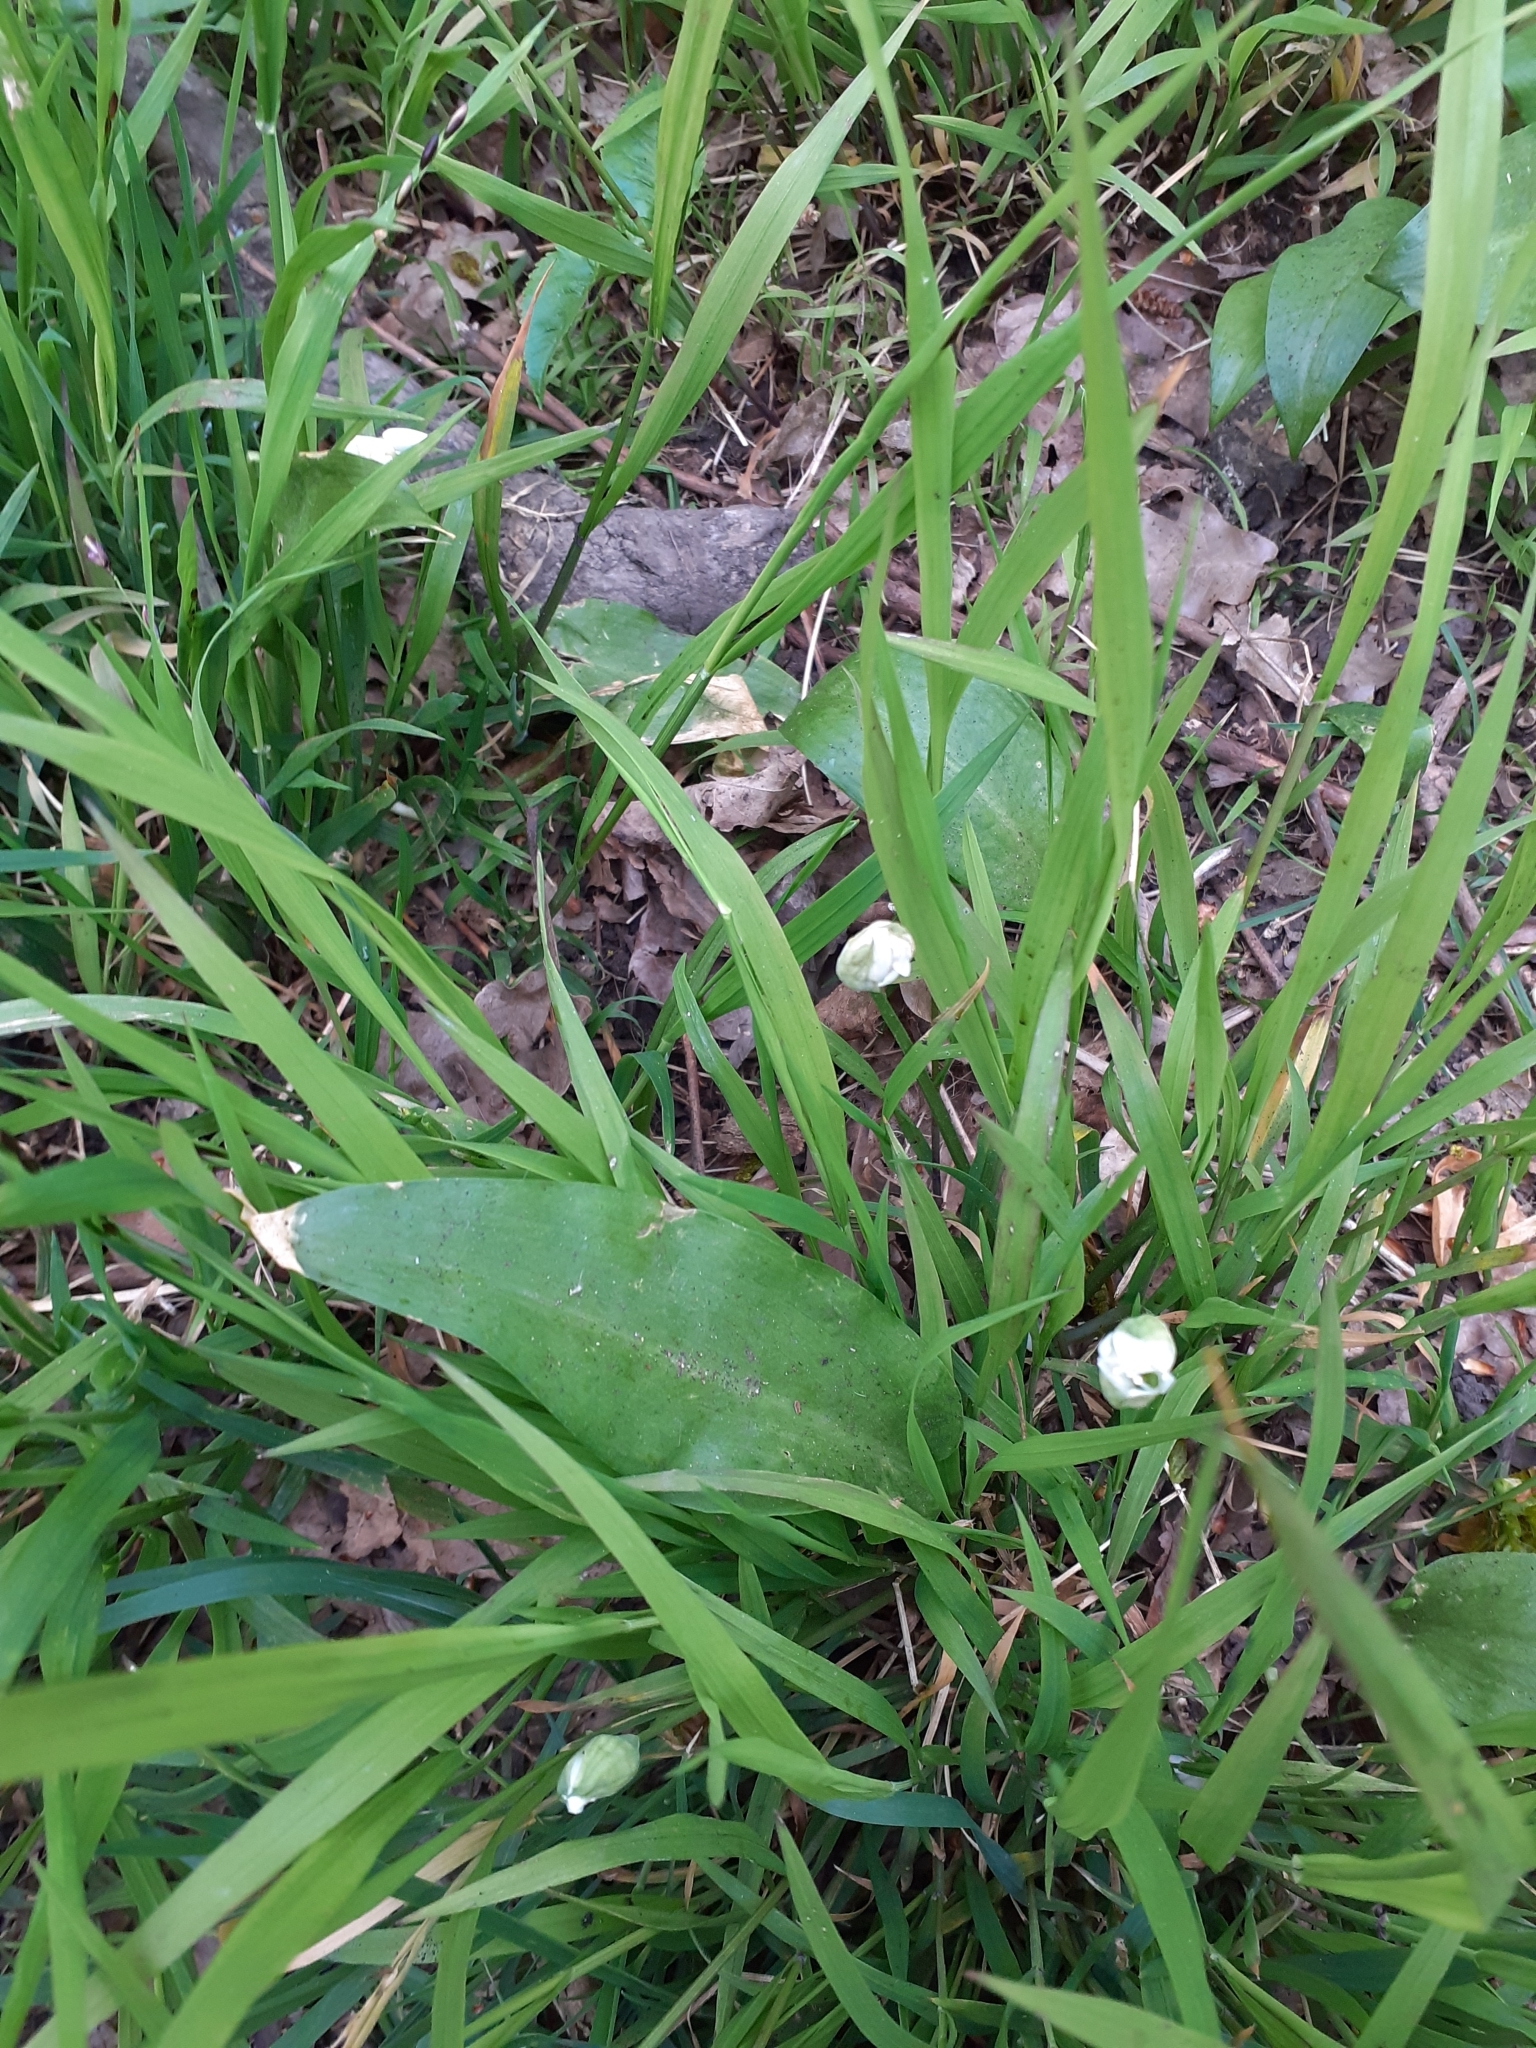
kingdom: Plantae
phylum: Tracheophyta
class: Liliopsida
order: Asparagales
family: Amaryllidaceae
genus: Allium
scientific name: Allium ursinum
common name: Ramsons
